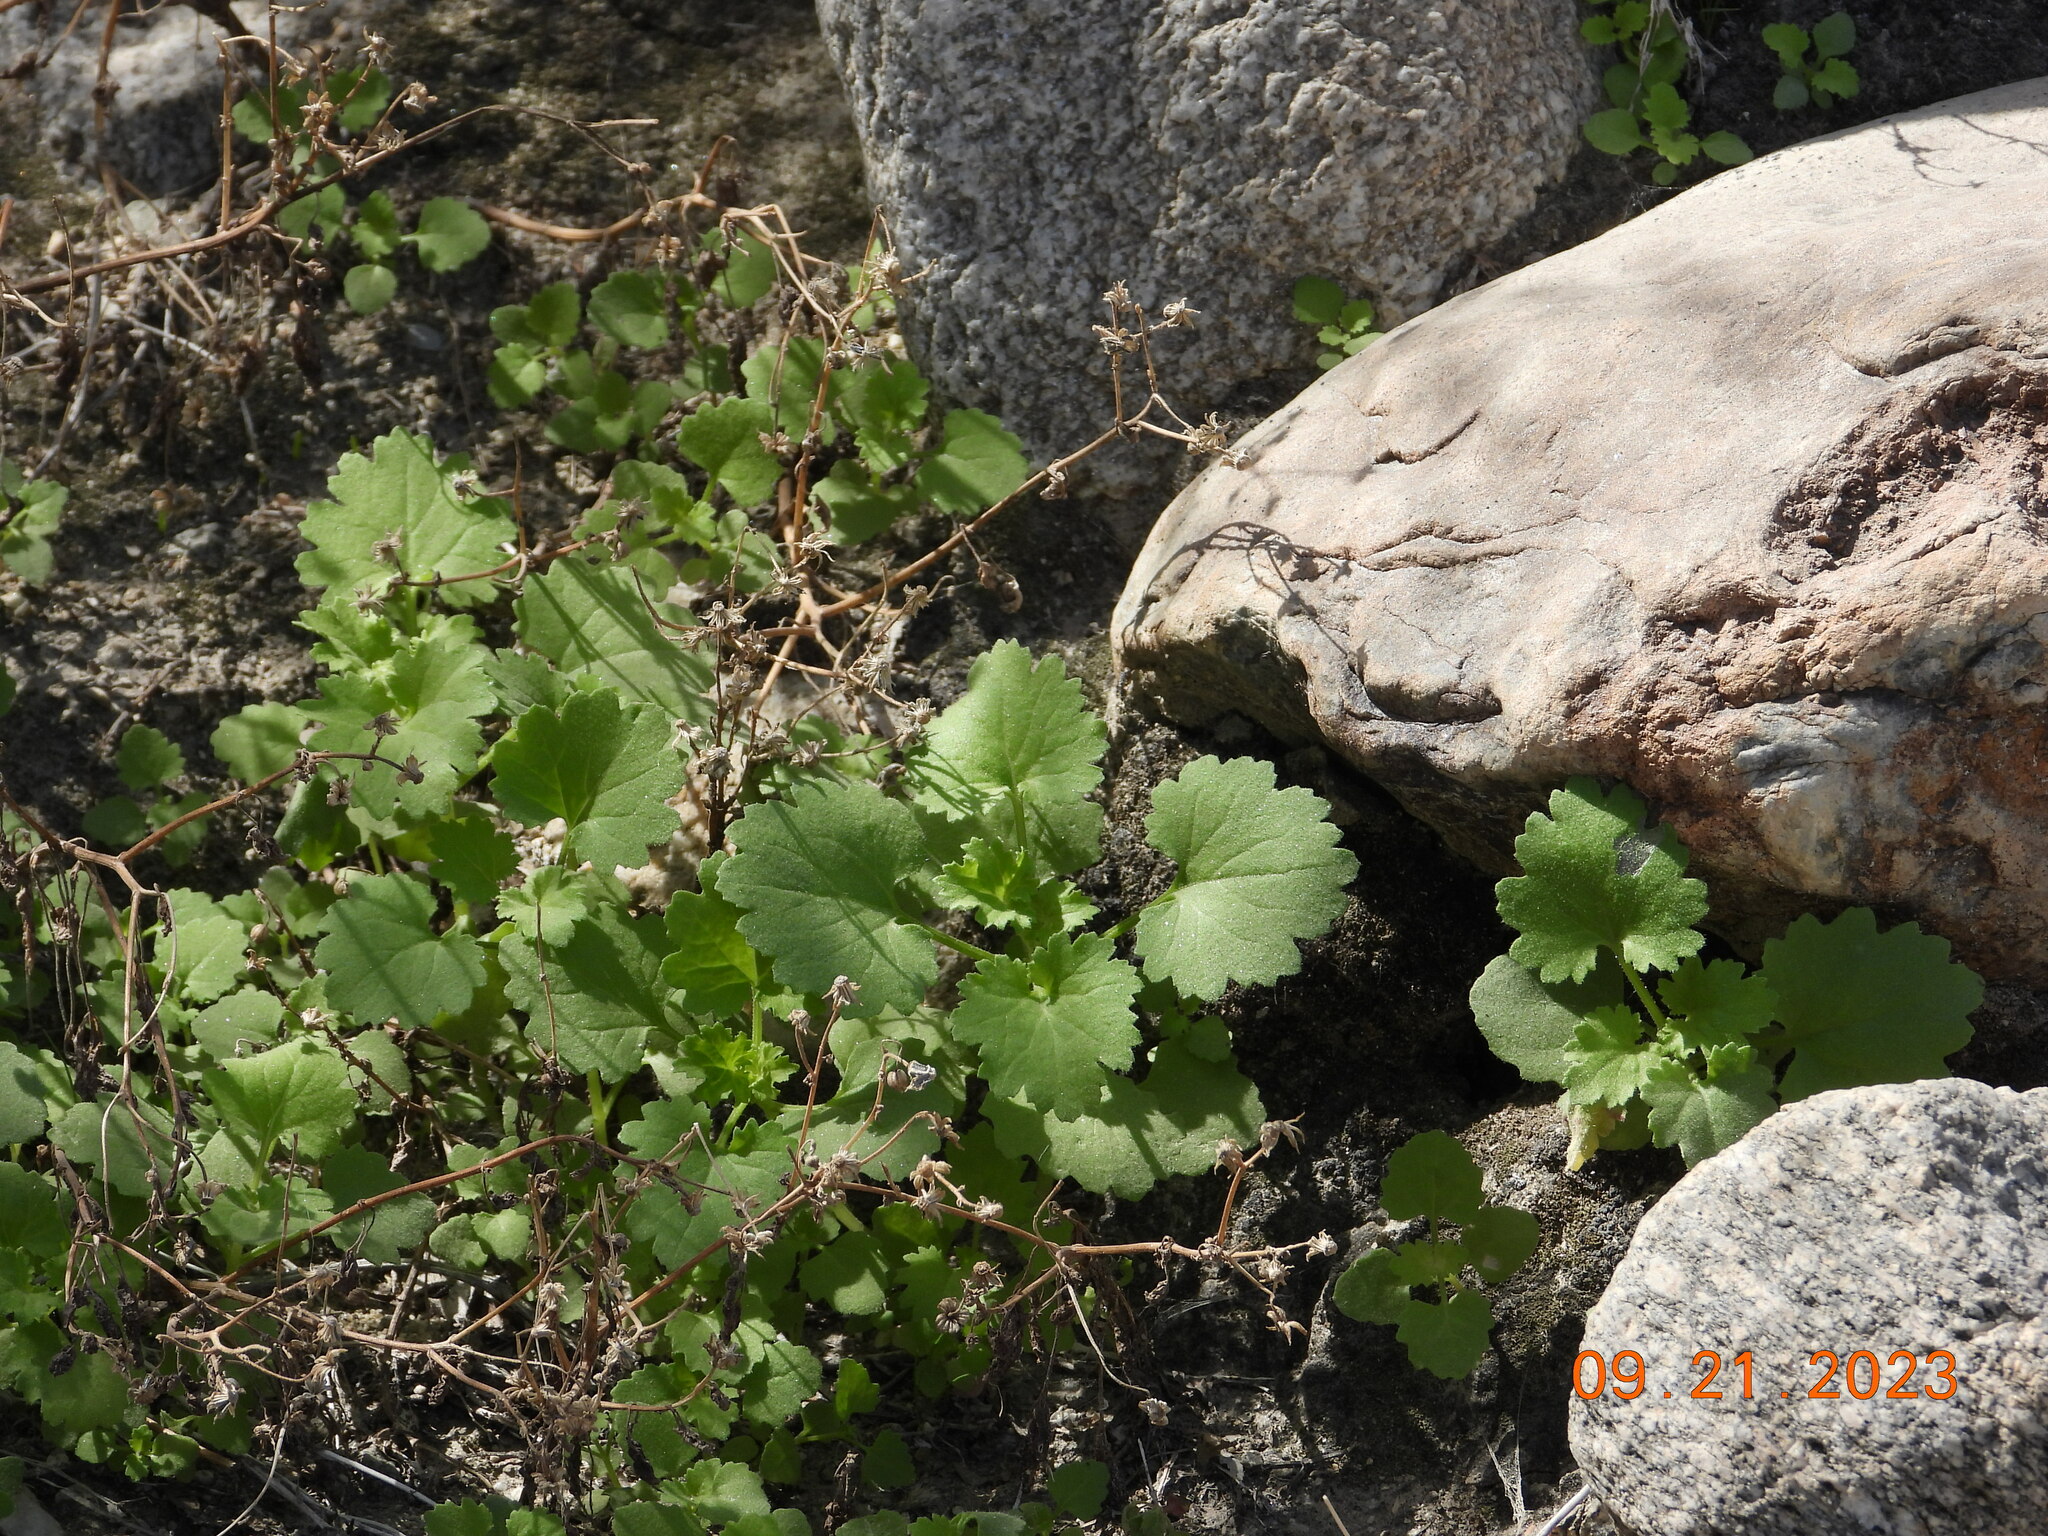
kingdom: Plantae
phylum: Tracheophyta
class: Magnoliopsida
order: Asterales
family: Asteraceae
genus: Laphamia
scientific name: Laphamia emoryi
